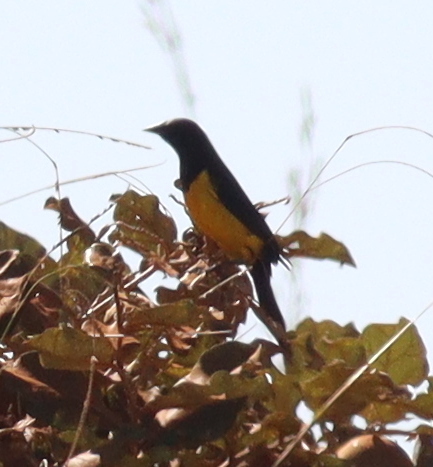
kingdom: Animalia
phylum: Chordata
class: Aves
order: Passeriformes
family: Icteridae
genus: Pseudoleistes
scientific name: Pseudoleistes guirahuro
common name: Yellow-rumped marshbird
